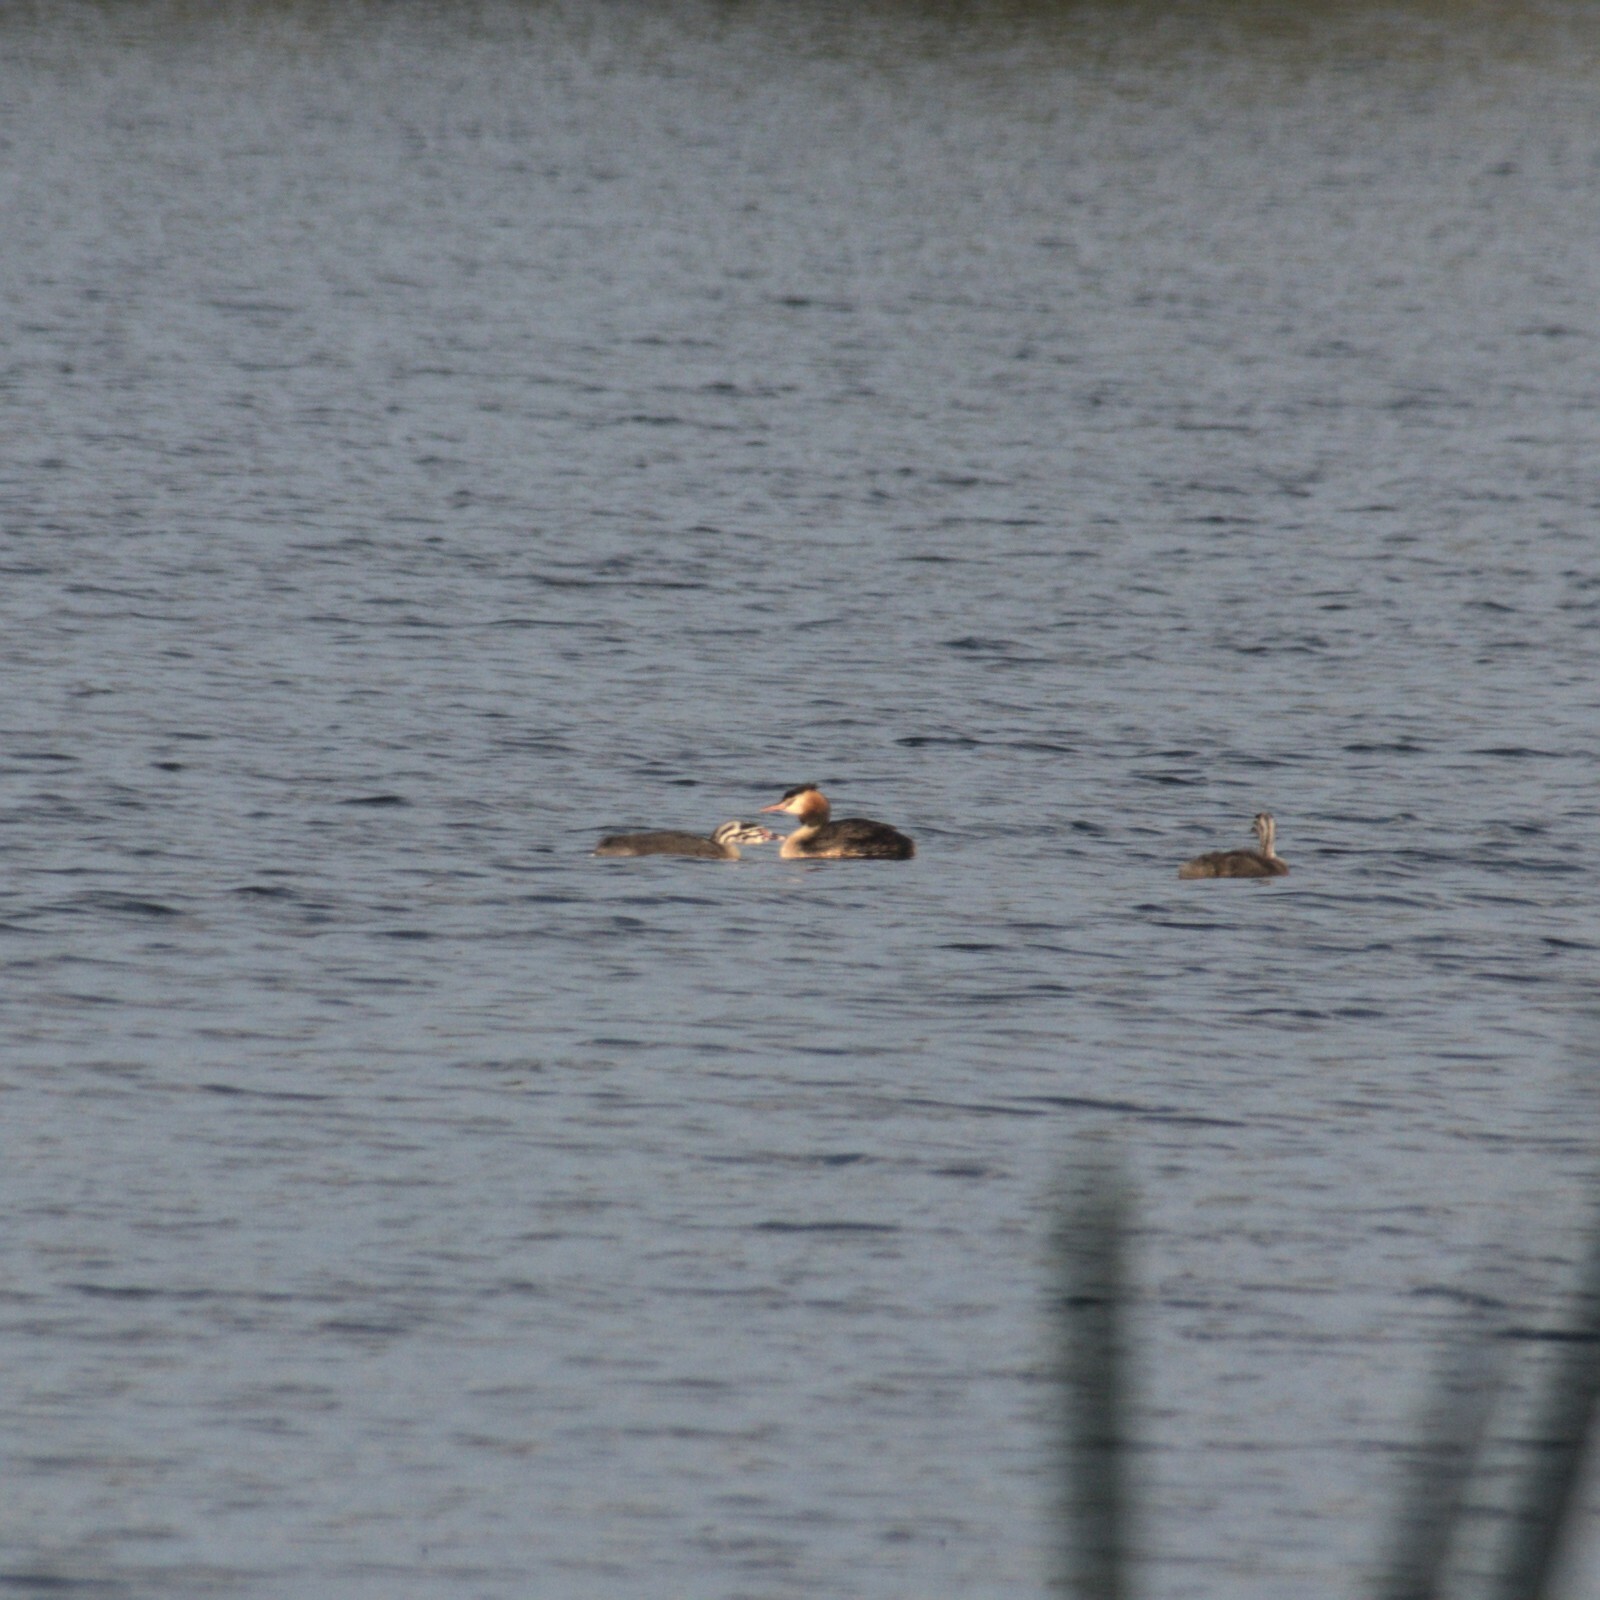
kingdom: Animalia
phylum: Chordata
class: Aves
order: Podicipediformes
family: Podicipedidae
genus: Podiceps
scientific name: Podiceps cristatus
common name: Great crested grebe
